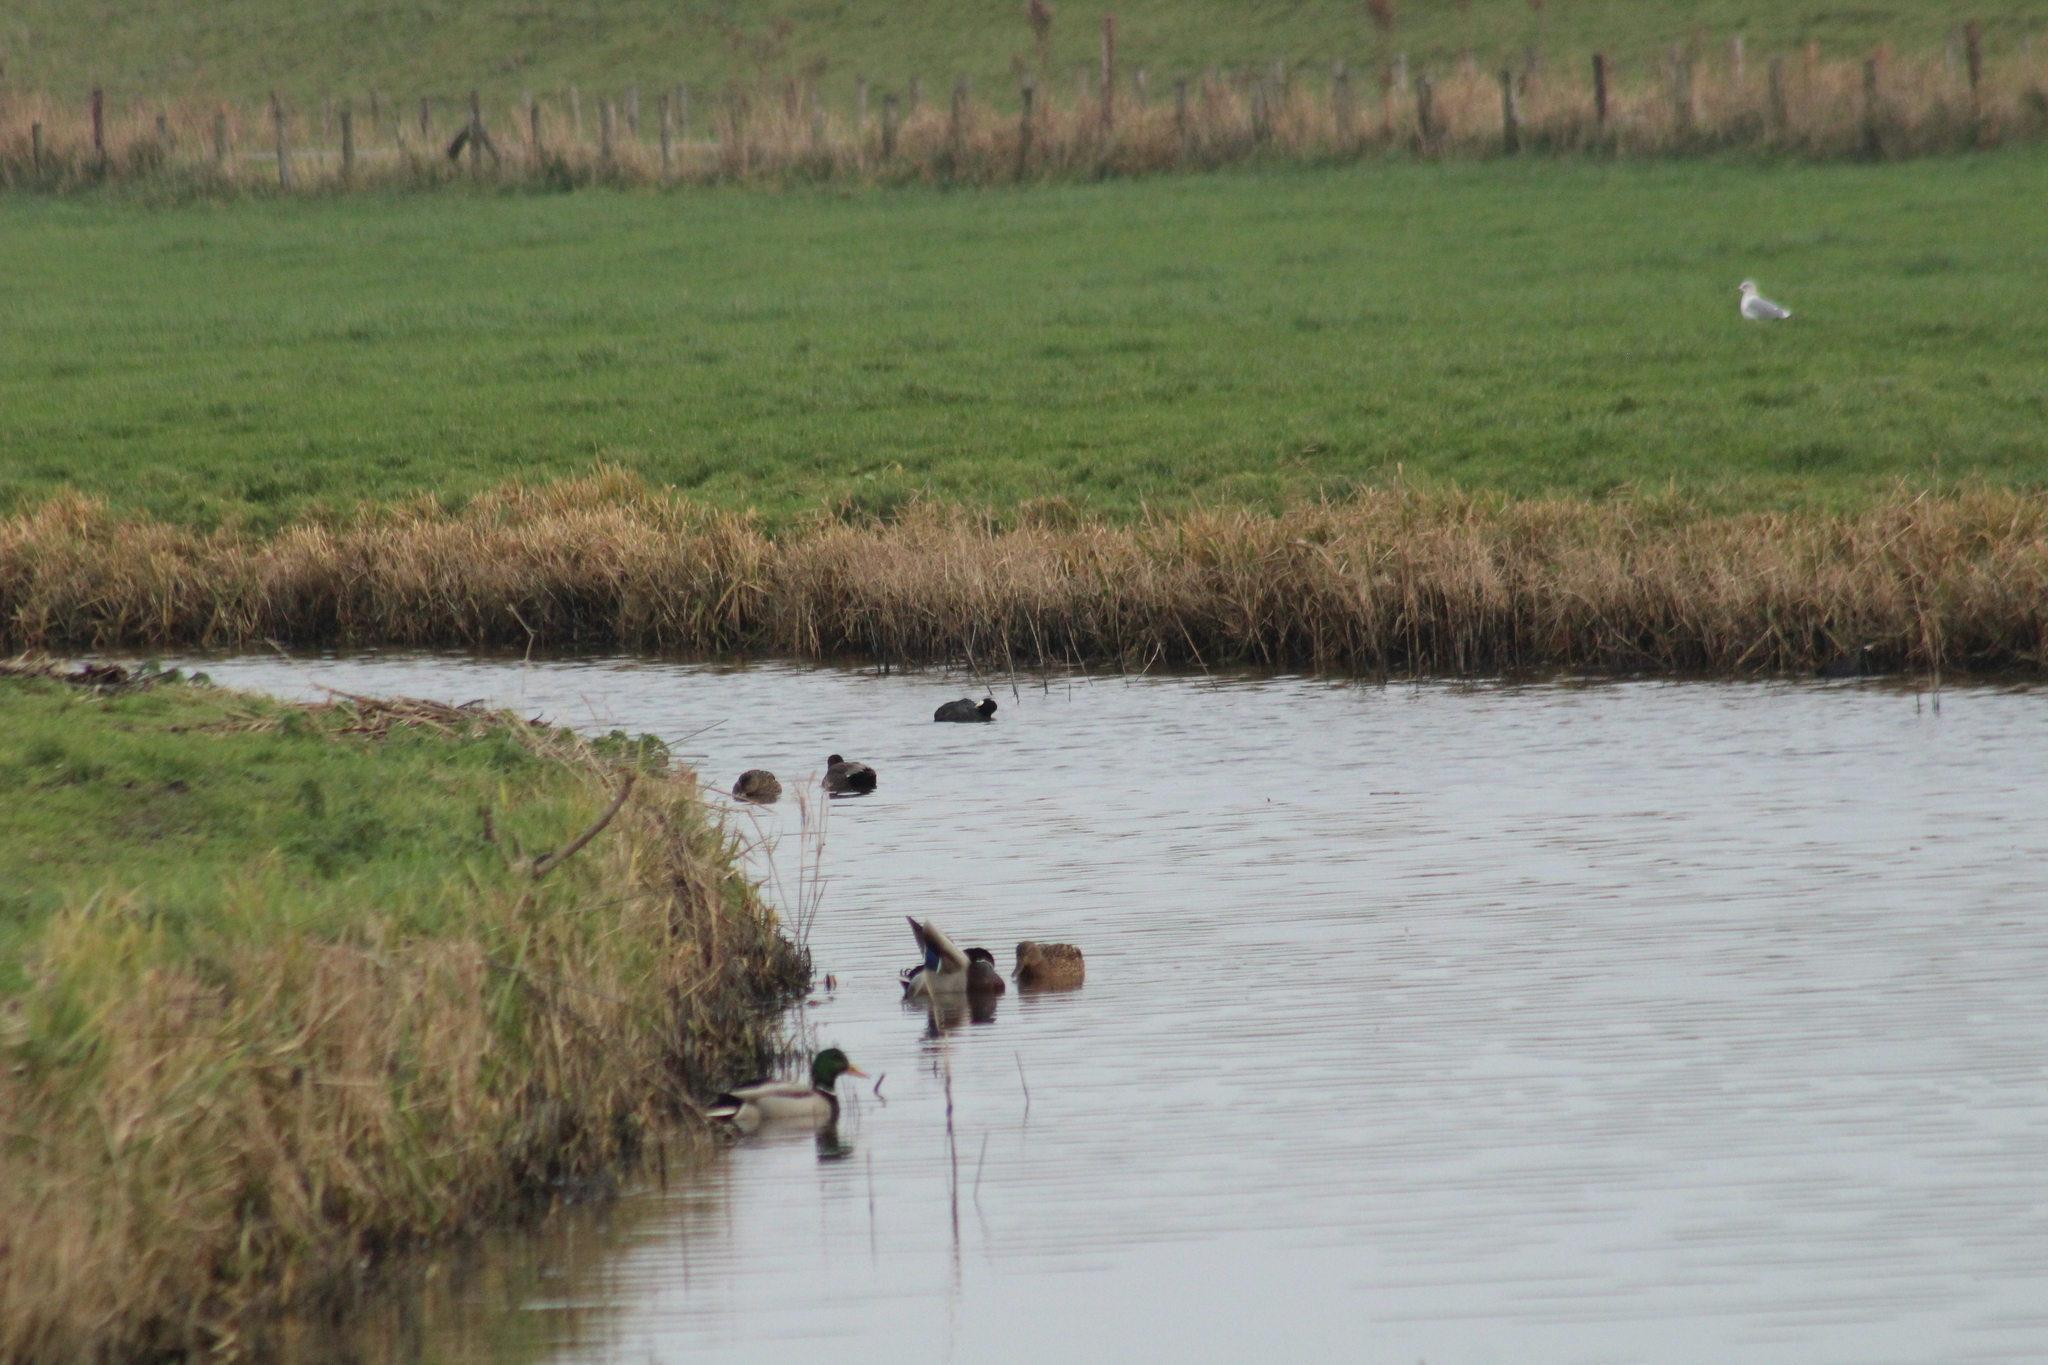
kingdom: Animalia
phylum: Chordata
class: Aves
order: Gruiformes
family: Rallidae
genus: Fulica
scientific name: Fulica atra
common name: Eurasian coot
